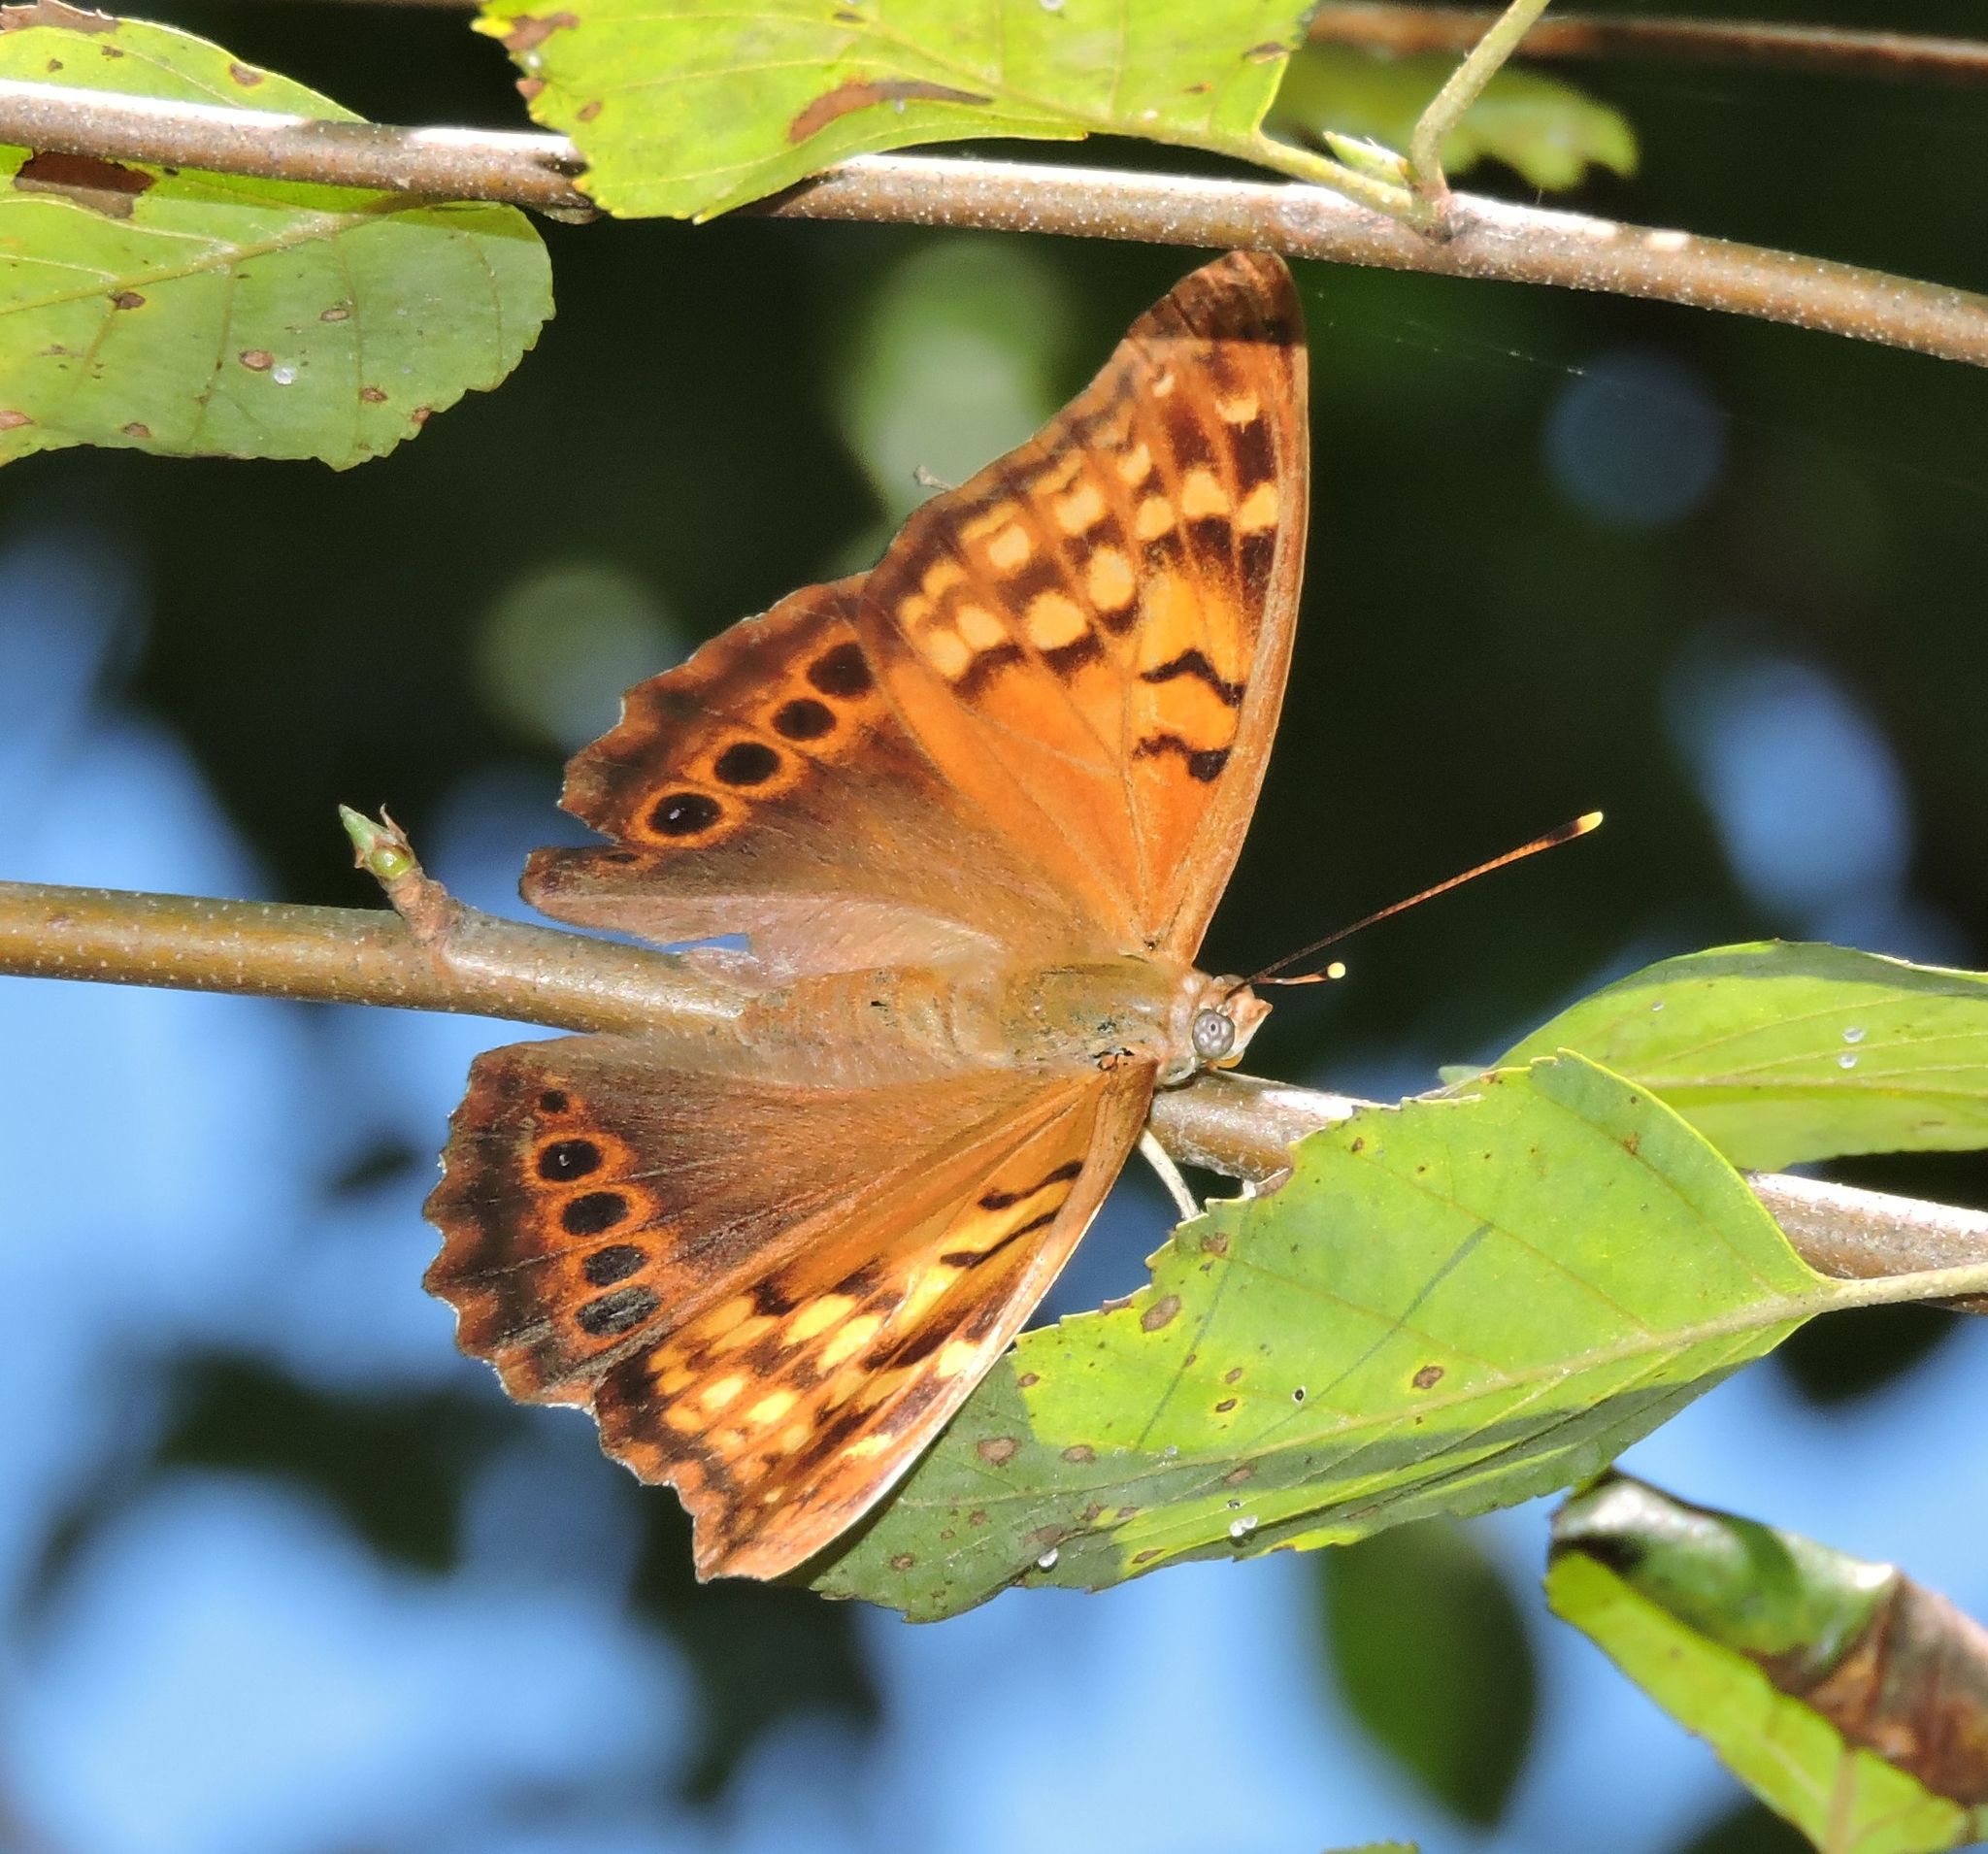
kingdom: Animalia
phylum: Arthropoda
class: Insecta
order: Lepidoptera
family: Nymphalidae
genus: Asterocampa
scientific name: Asterocampa clyton
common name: Tawny emperor
